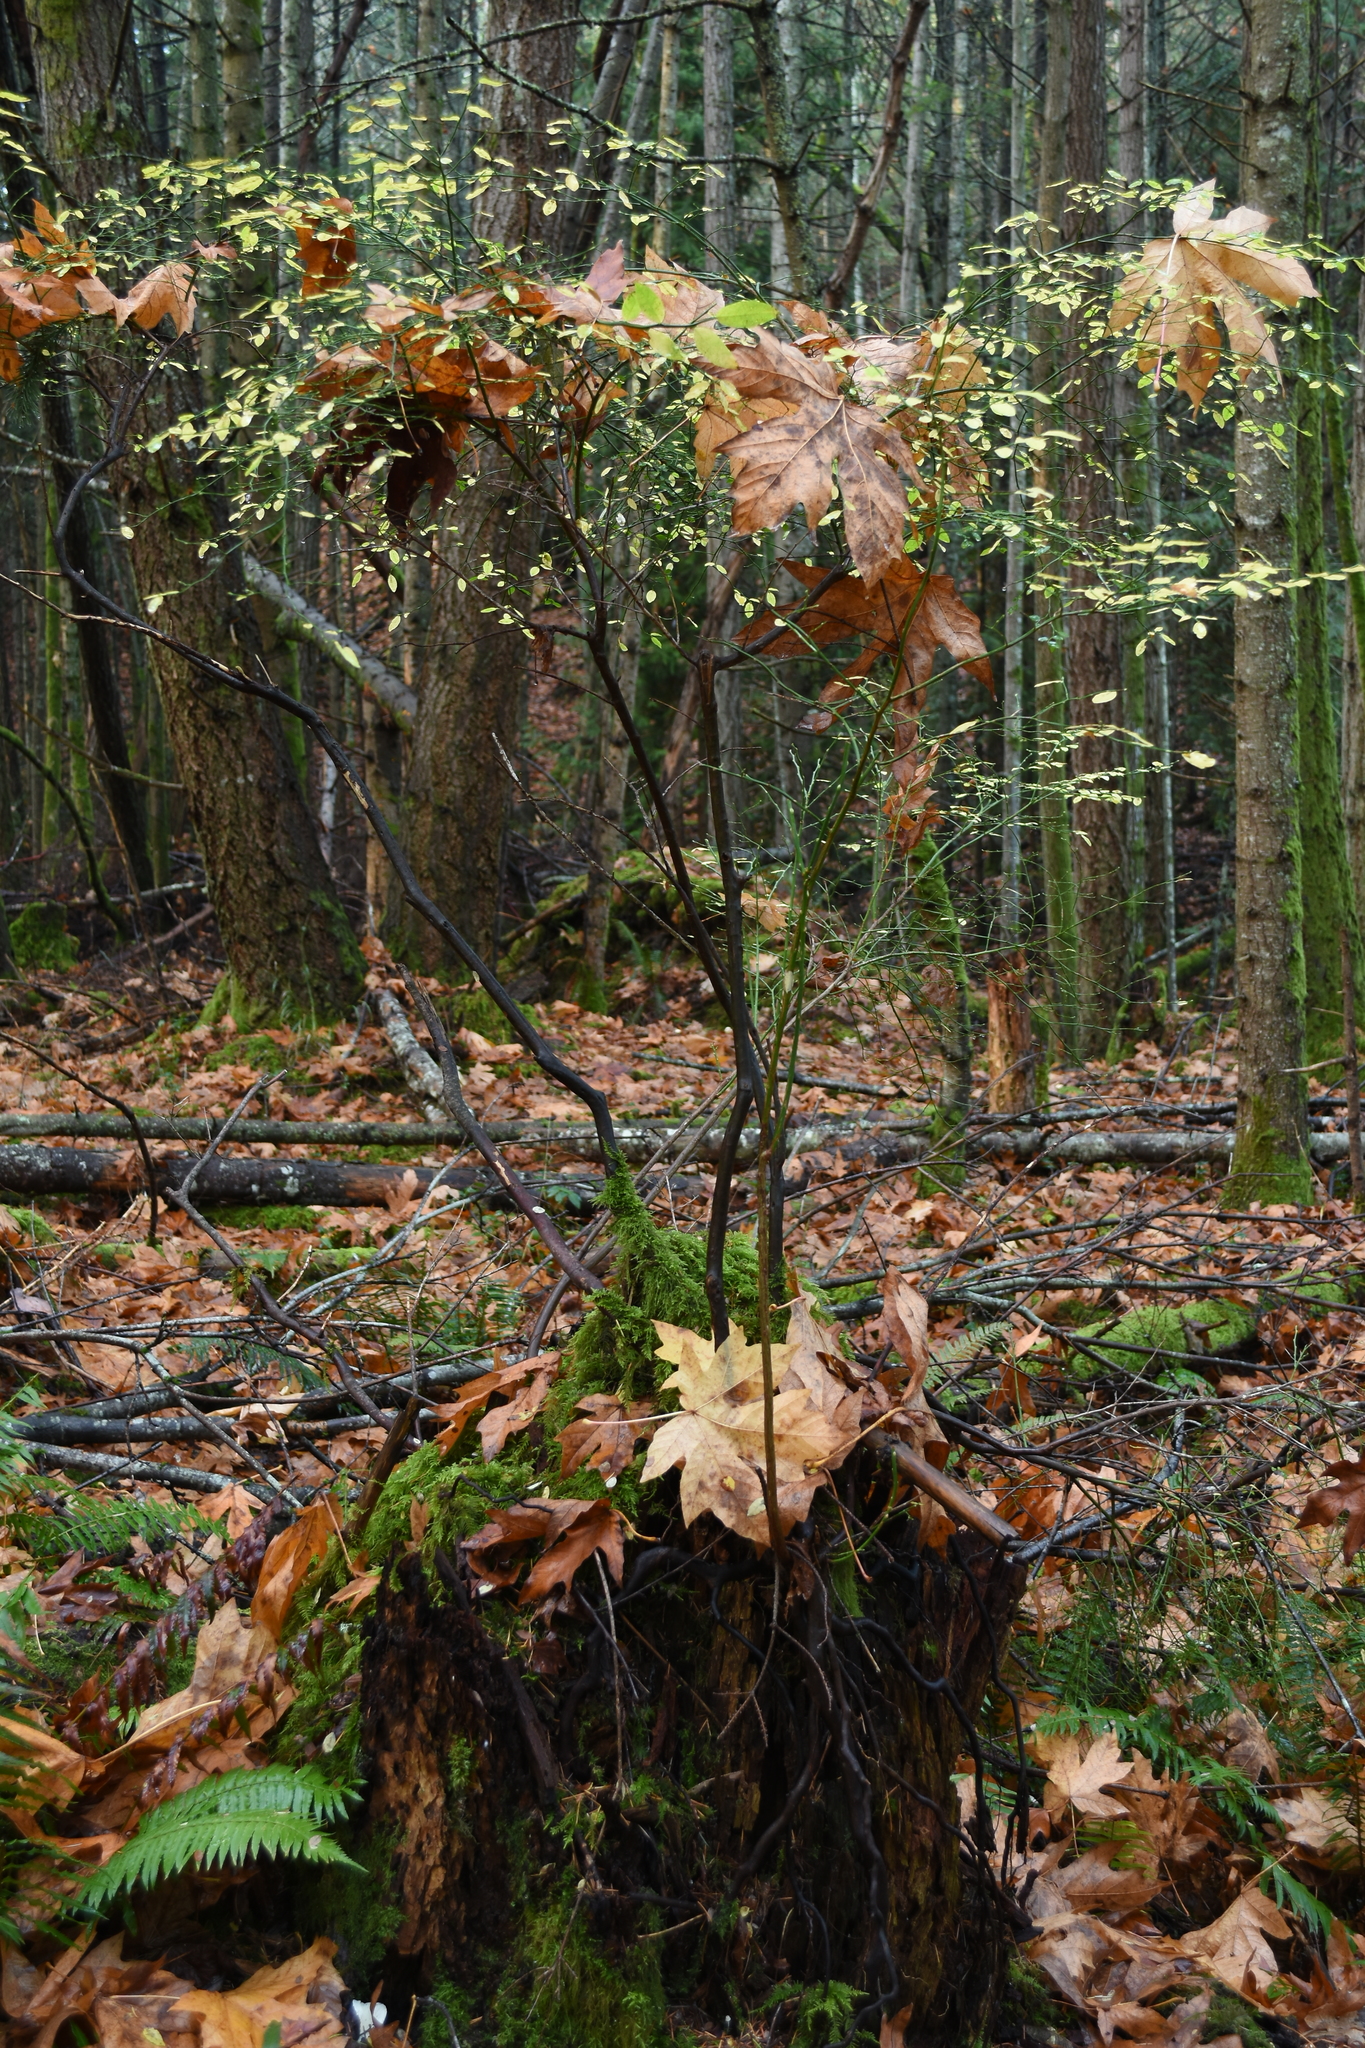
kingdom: Plantae
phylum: Tracheophyta
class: Magnoliopsida
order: Ericales
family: Ericaceae
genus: Vaccinium
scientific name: Vaccinium parvifolium
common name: Red-huckleberry
